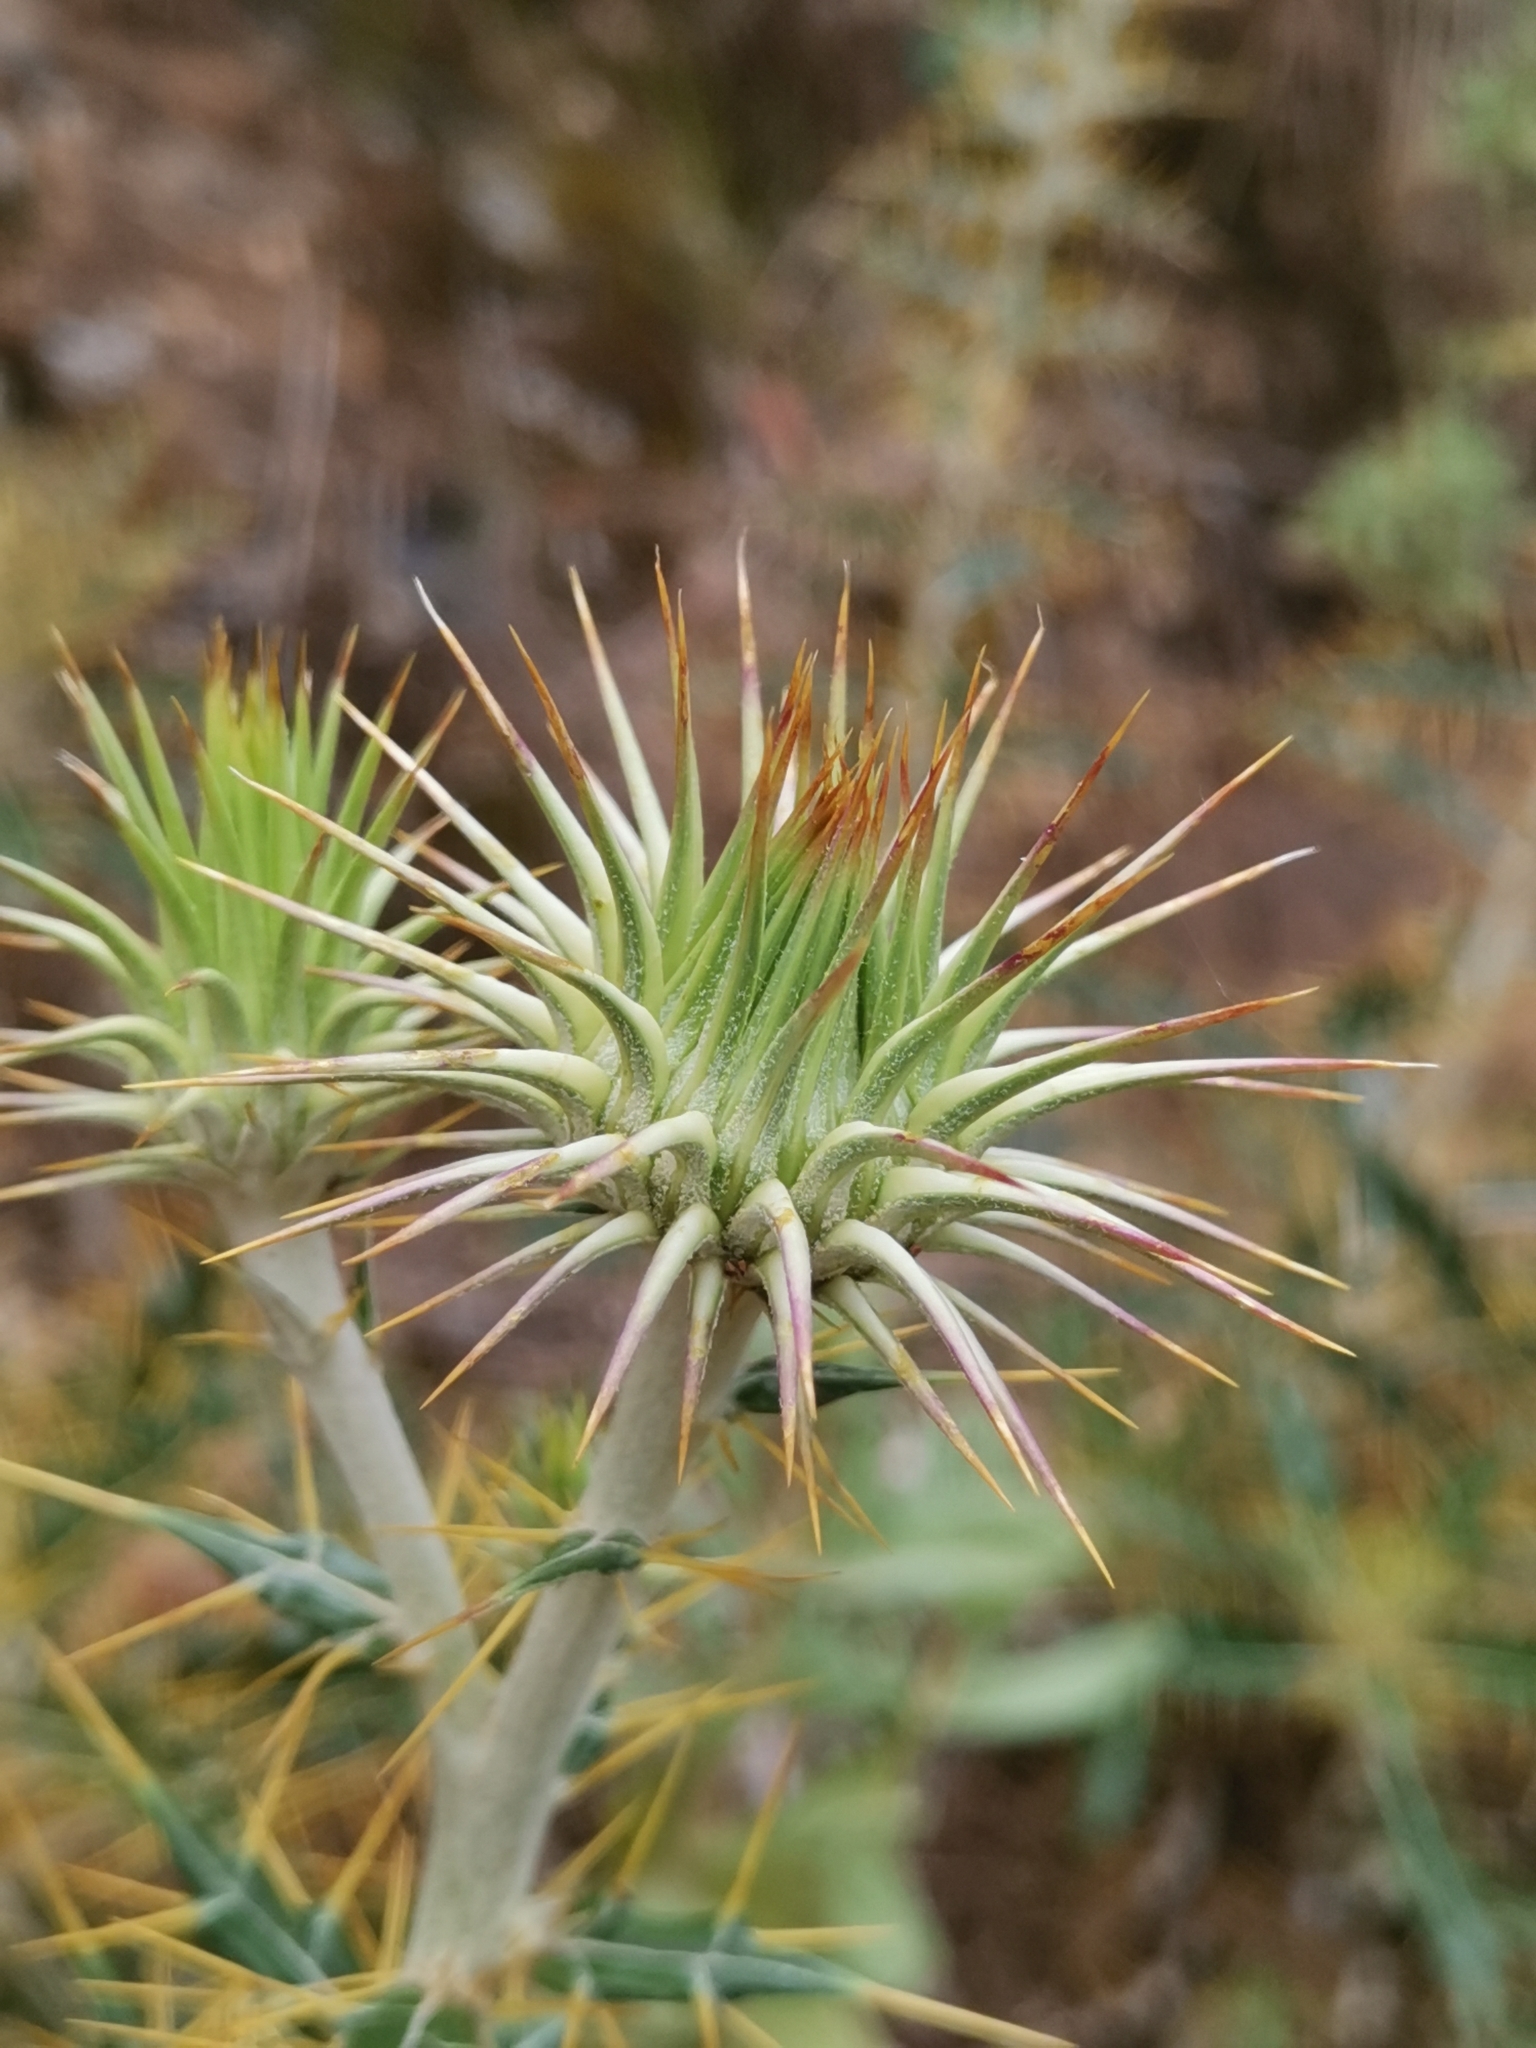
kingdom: Plantae
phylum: Tracheophyta
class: Magnoliopsida
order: Asterales
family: Asteraceae
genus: Ptilostemon
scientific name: Ptilostemon hispanicus
